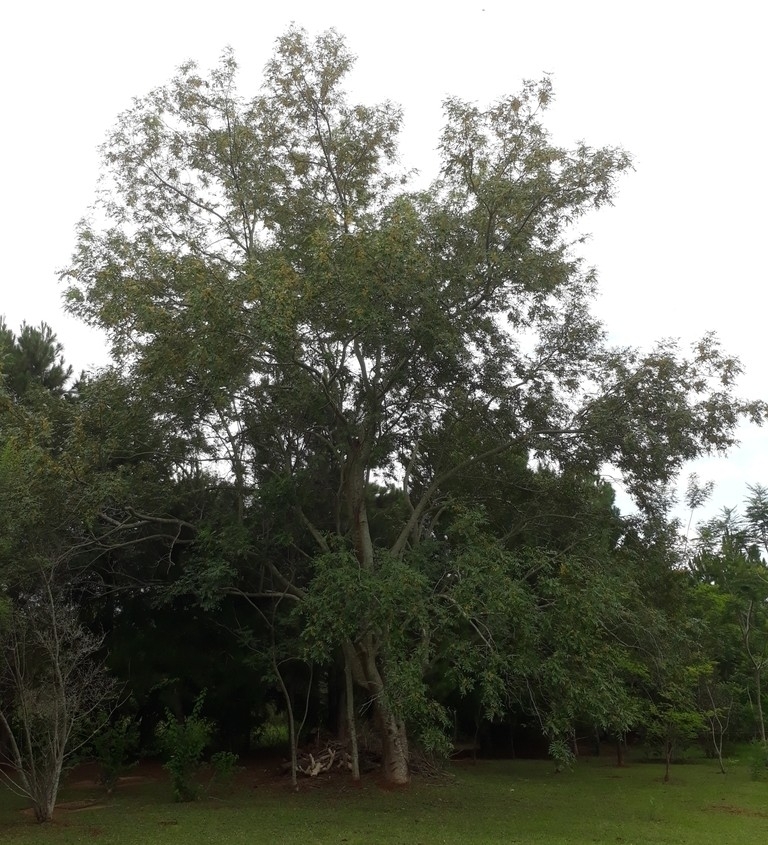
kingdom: Plantae
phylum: Tracheophyta
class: Magnoliopsida
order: Fabales
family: Fabaceae
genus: Pterogyne
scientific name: Pterogyne nitens
